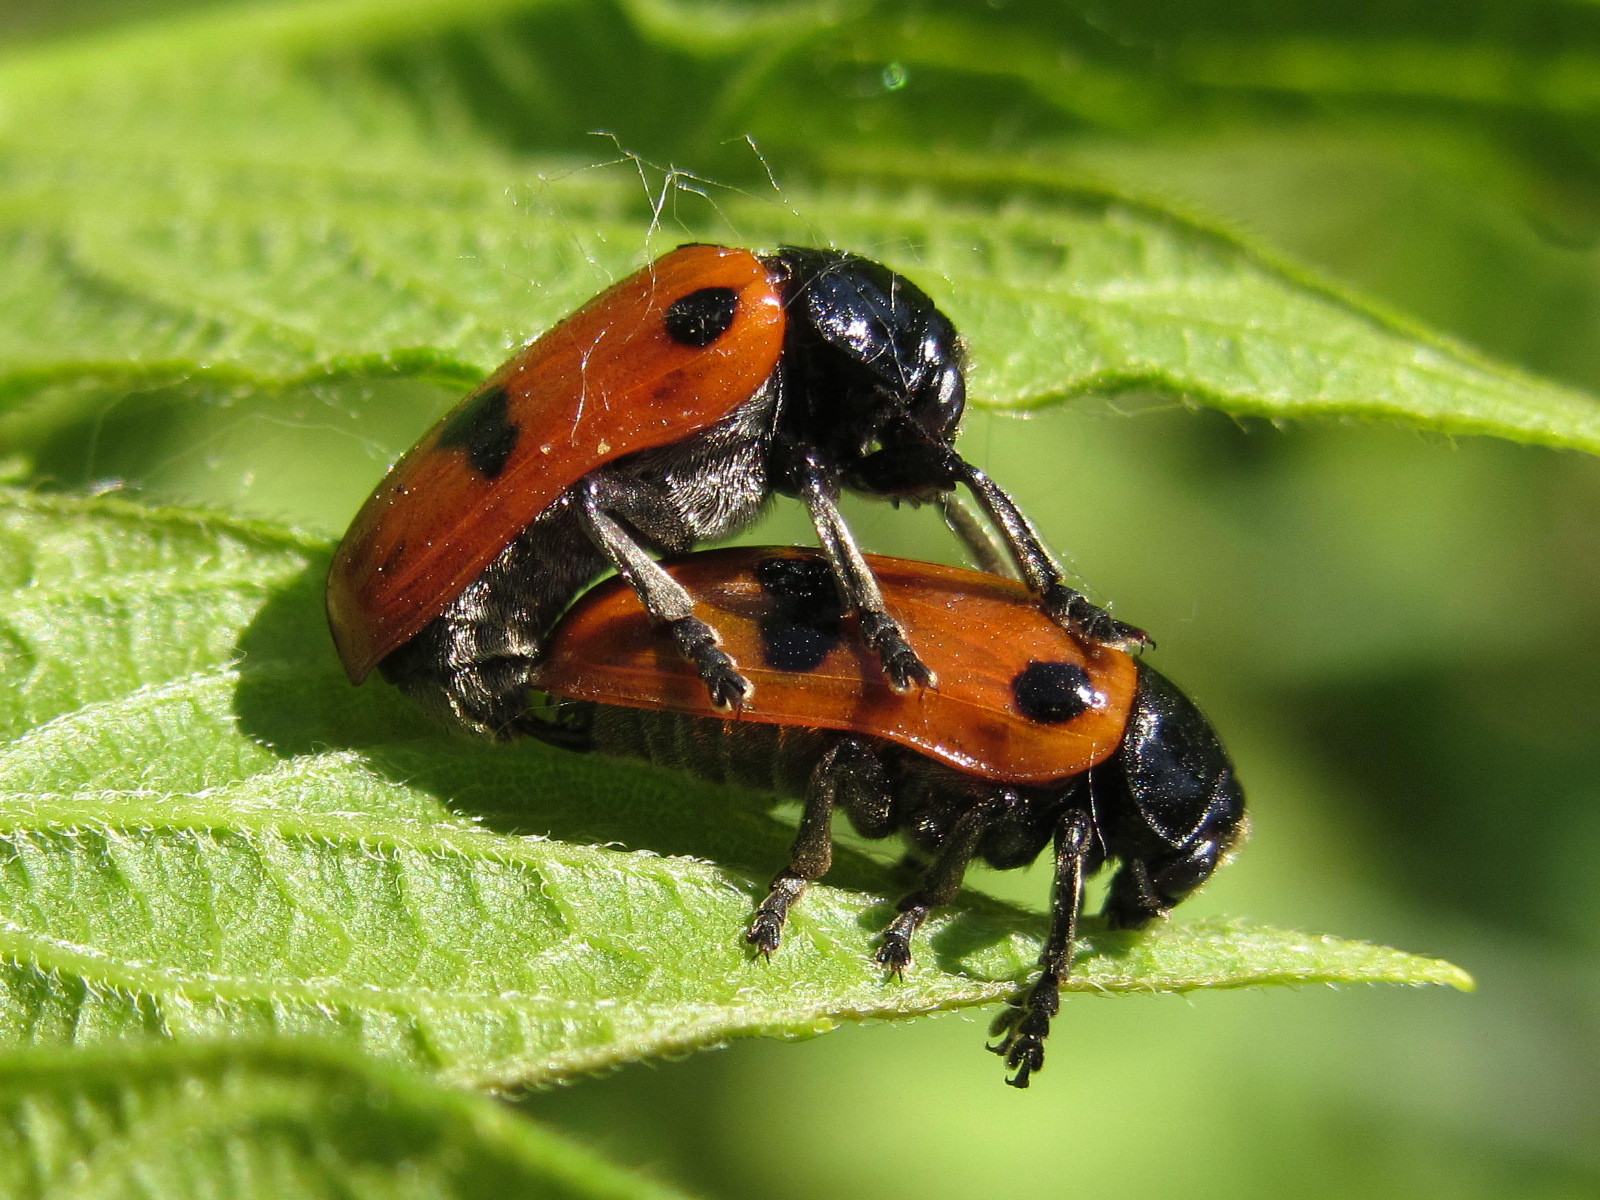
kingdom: Animalia
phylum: Arthropoda
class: Insecta
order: Coleoptera
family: Chrysomelidae
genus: Clytra
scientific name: Clytra quadripunctata
